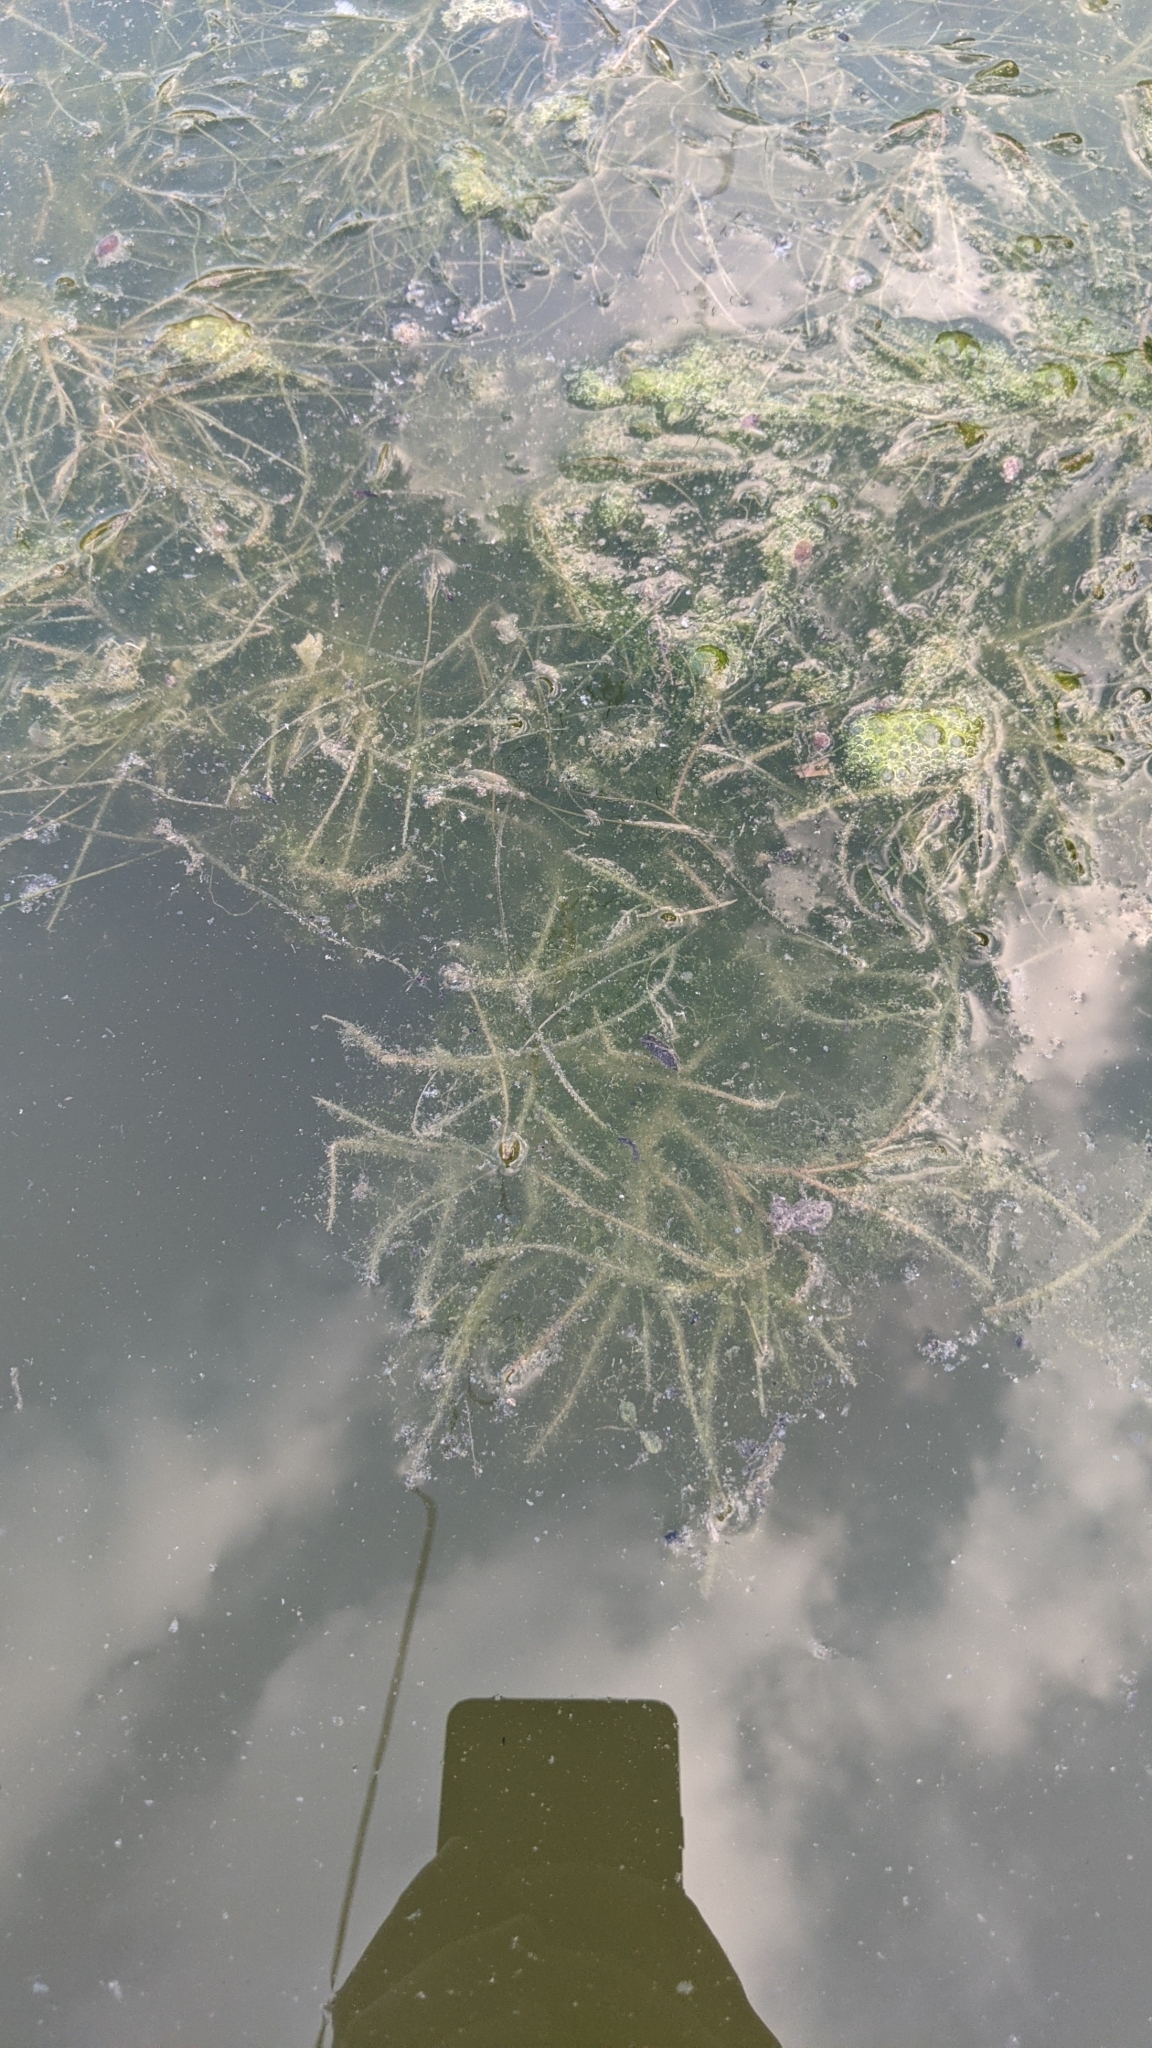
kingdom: Plantae
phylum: Tracheophyta
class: Liliopsida
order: Alismatales
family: Potamogetonaceae
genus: Stuckenia
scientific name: Stuckenia pectinata
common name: Sago pondweed
